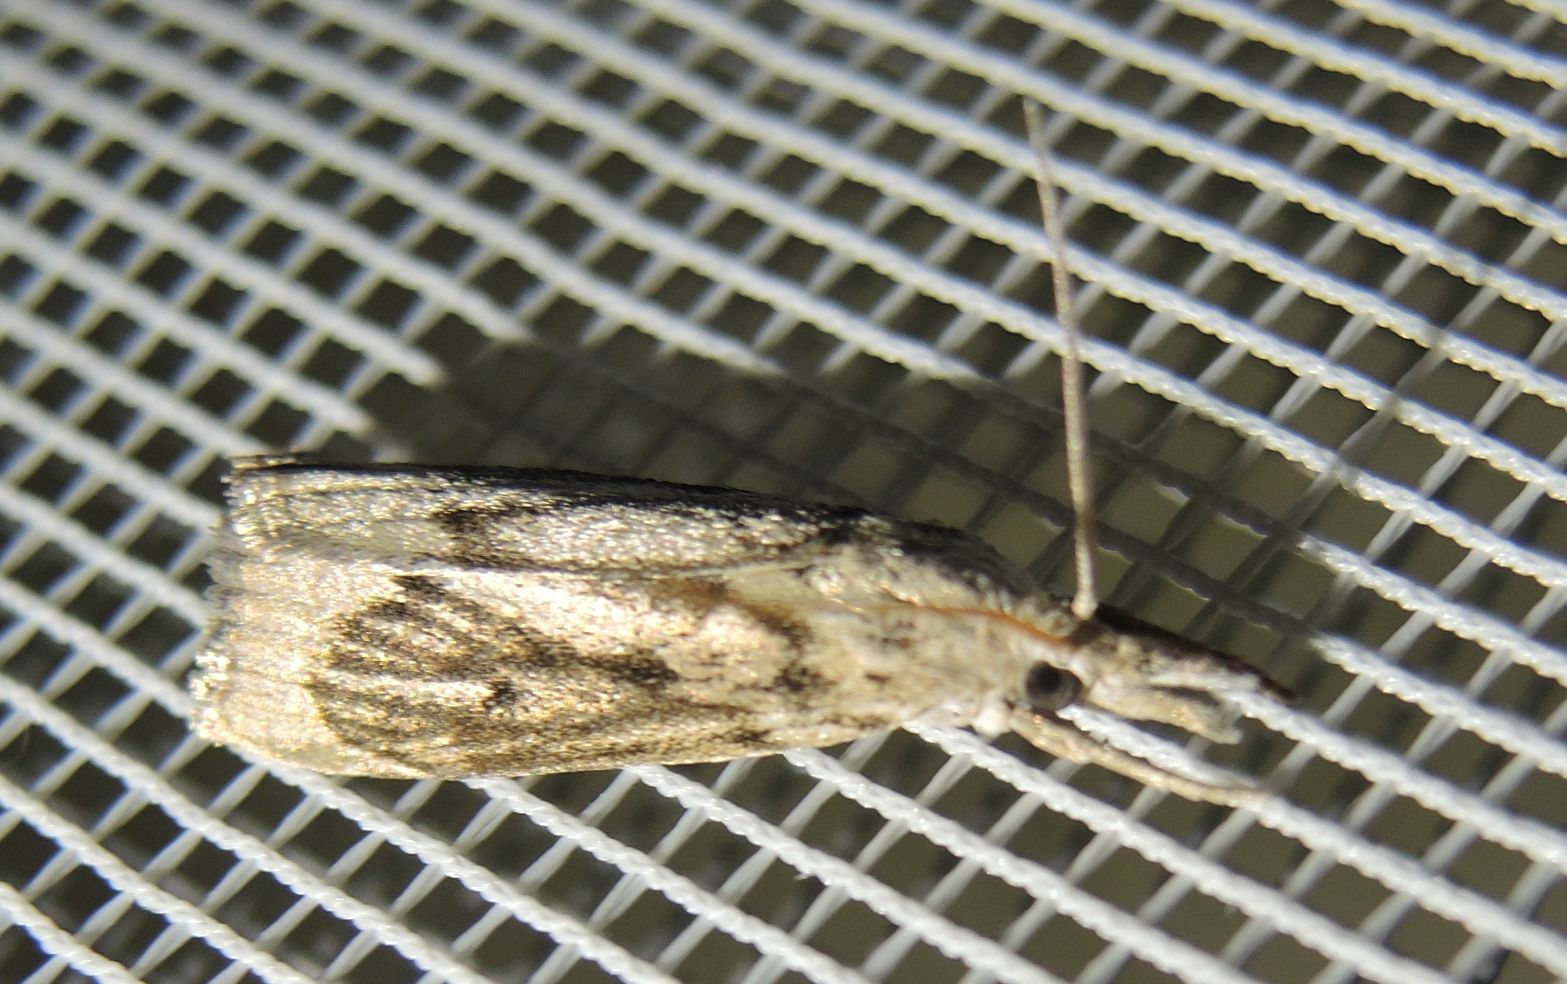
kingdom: Animalia
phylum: Arthropoda
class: Insecta
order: Lepidoptera
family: Crambidae
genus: Calamotropha
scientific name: Calamotropha paludella
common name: Bulrush veneer
